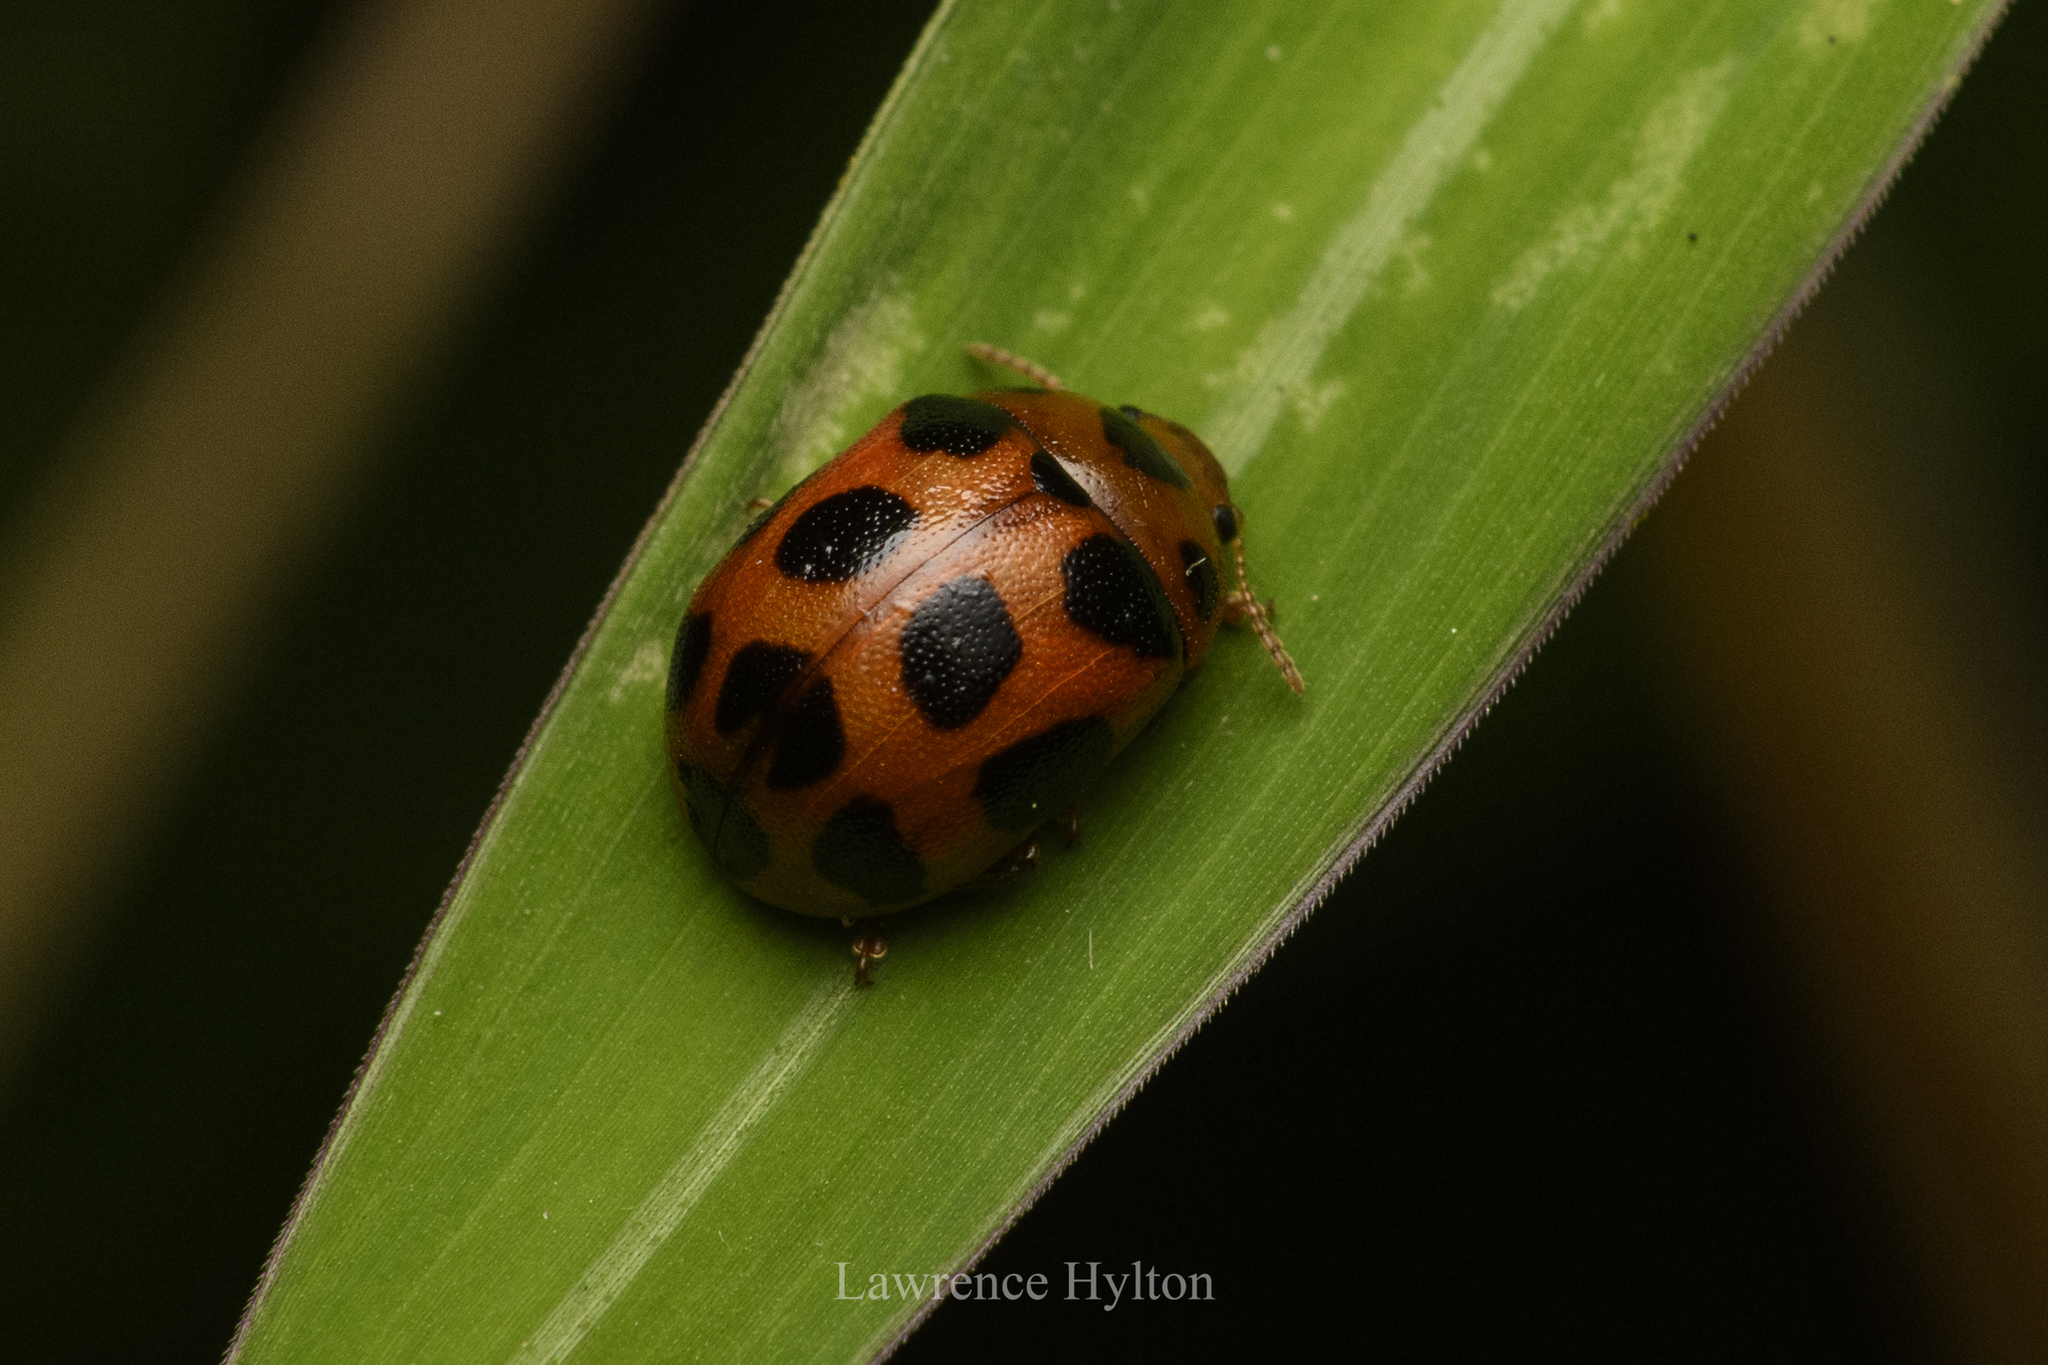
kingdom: Animalia
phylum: Arthropoda
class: Insecta
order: Coleoptera
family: Chrysomelidae
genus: Gonioctena
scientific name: Gonioctena tredecimmaculata
